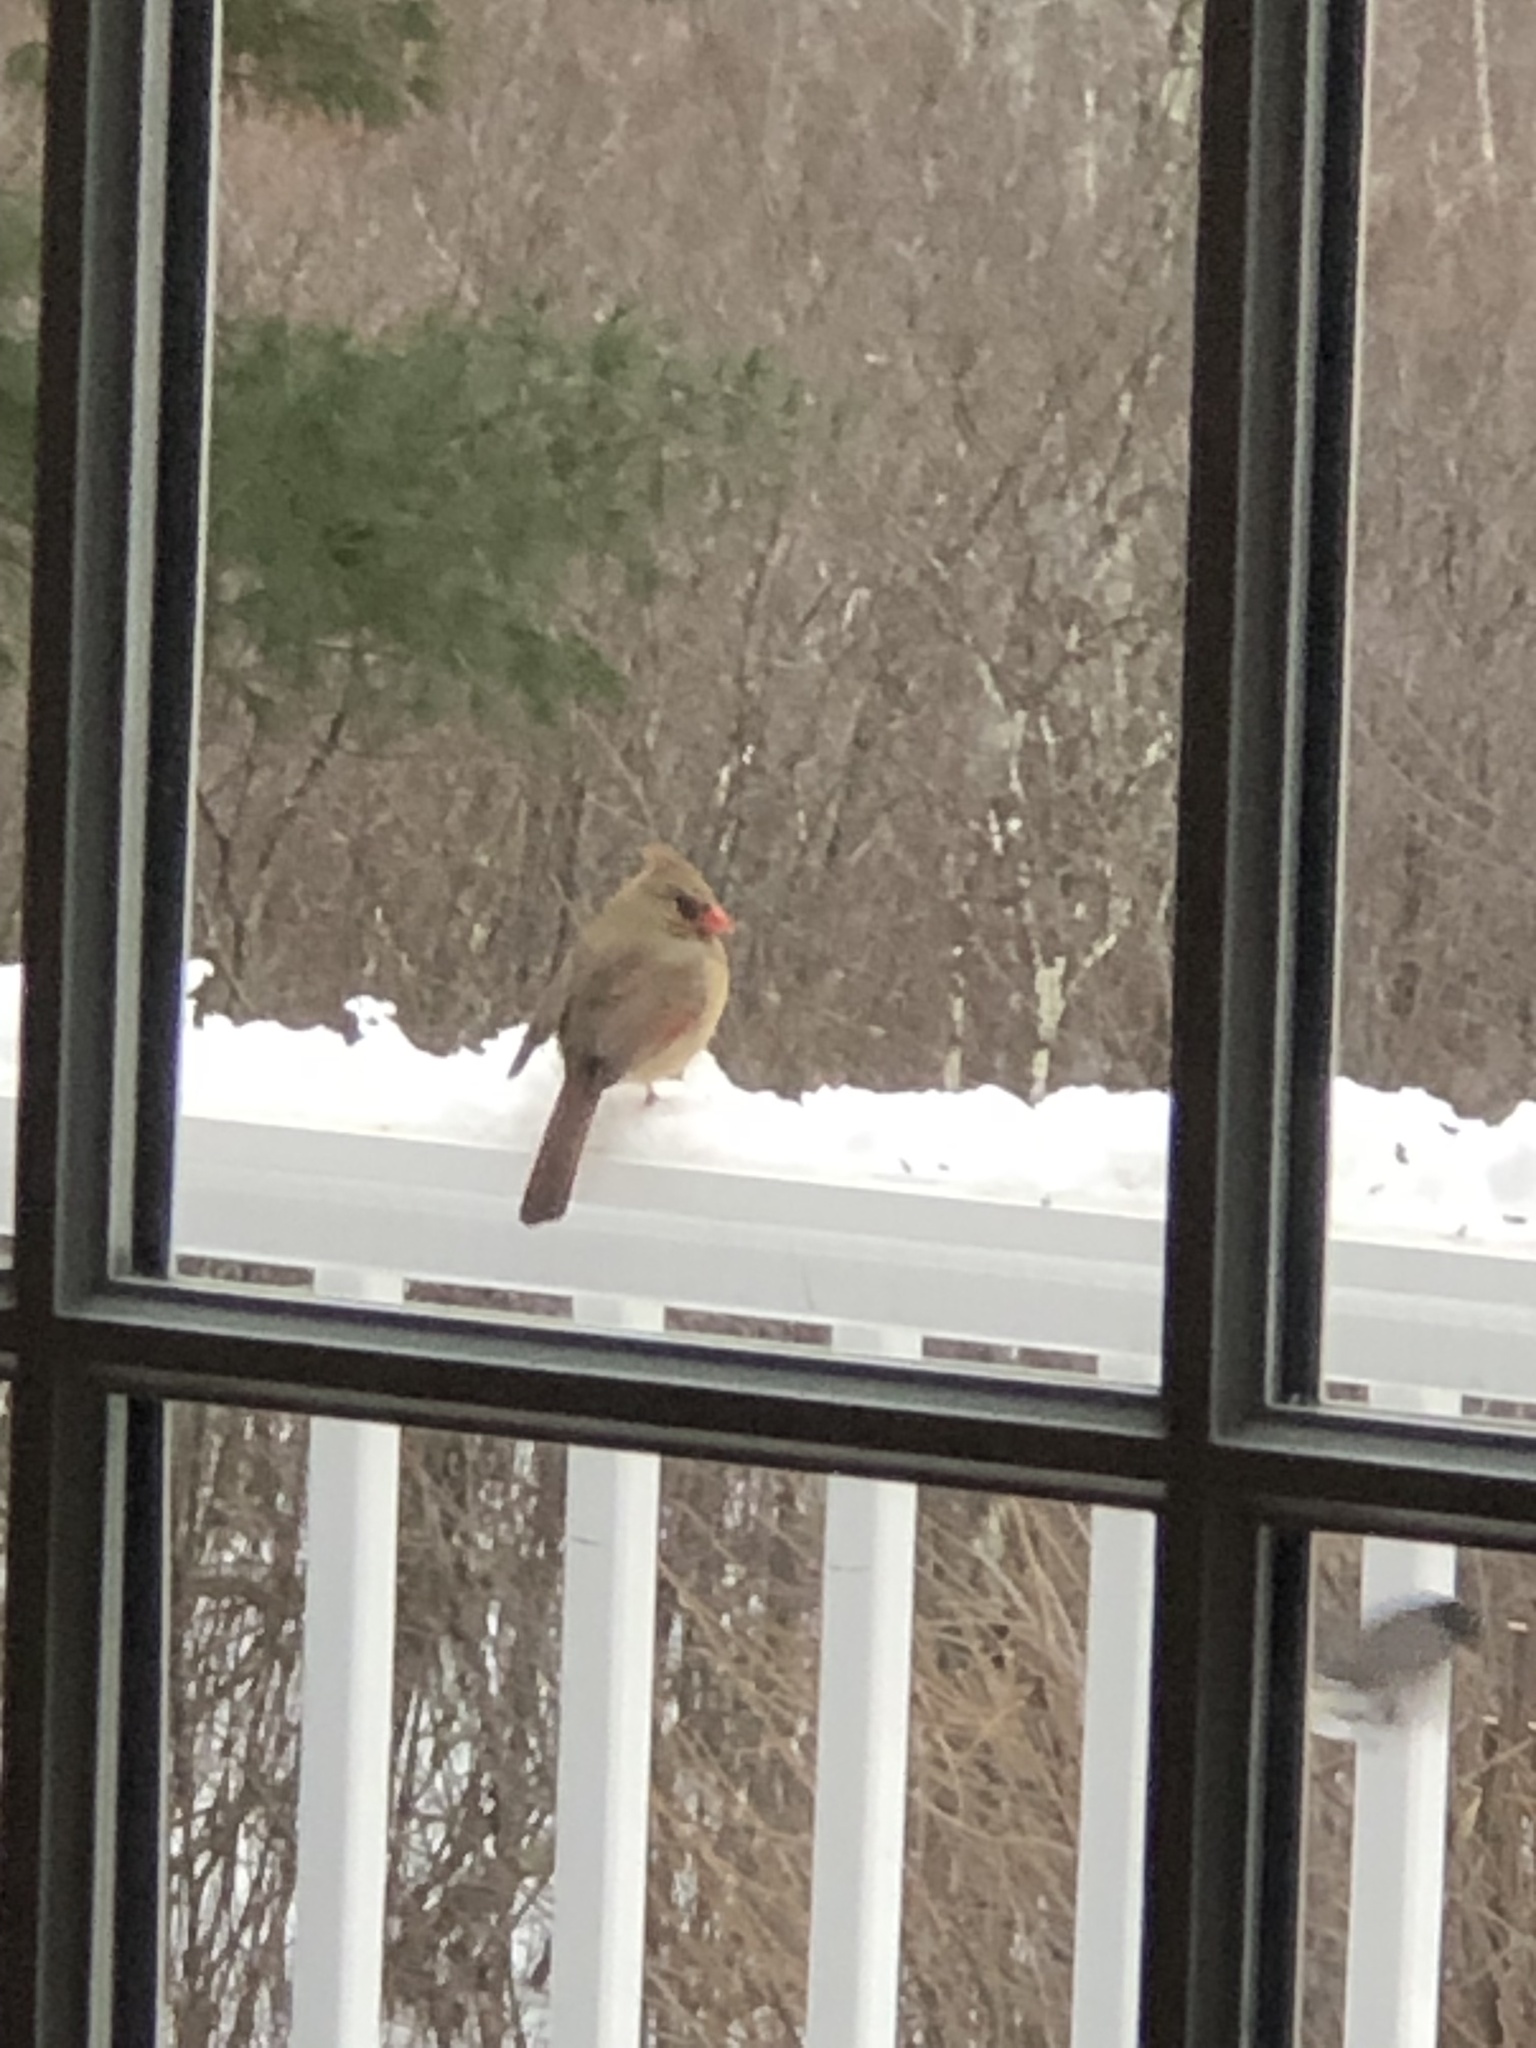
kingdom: Animalia
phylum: Chordata
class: Aves
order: Passeriformes
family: Cardinalidae
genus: Cardinalis
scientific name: Cardinalis cardinalis
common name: Northern cardinal
